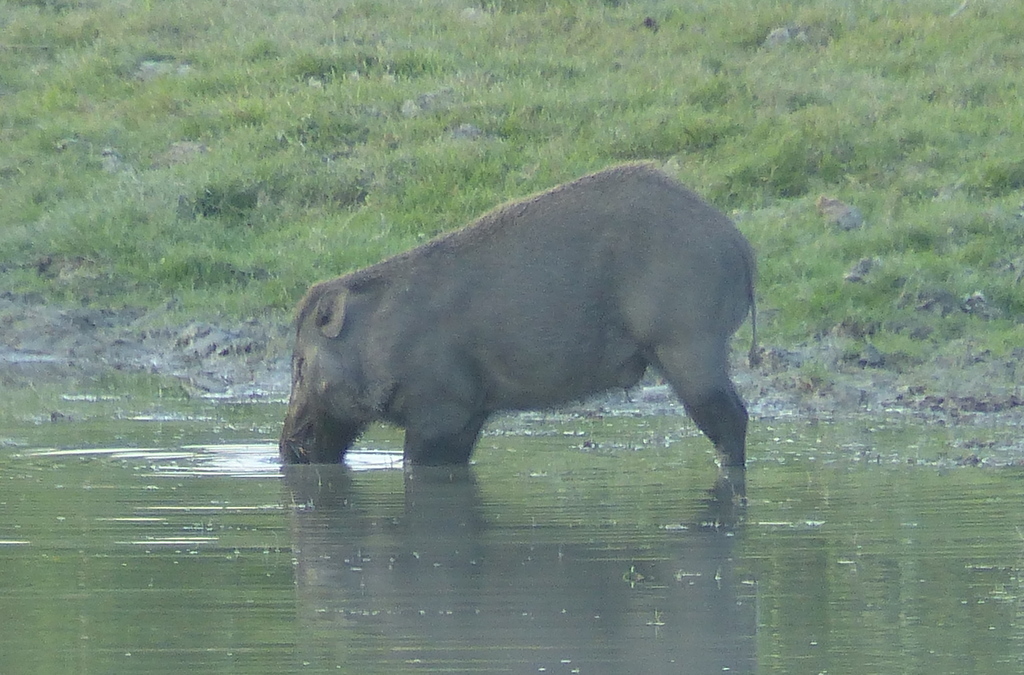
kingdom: Animalia
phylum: Chordata
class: Mammalia
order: Artiodactyla
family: Suidae
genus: Sus
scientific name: Sus scrofa
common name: Wild boar
